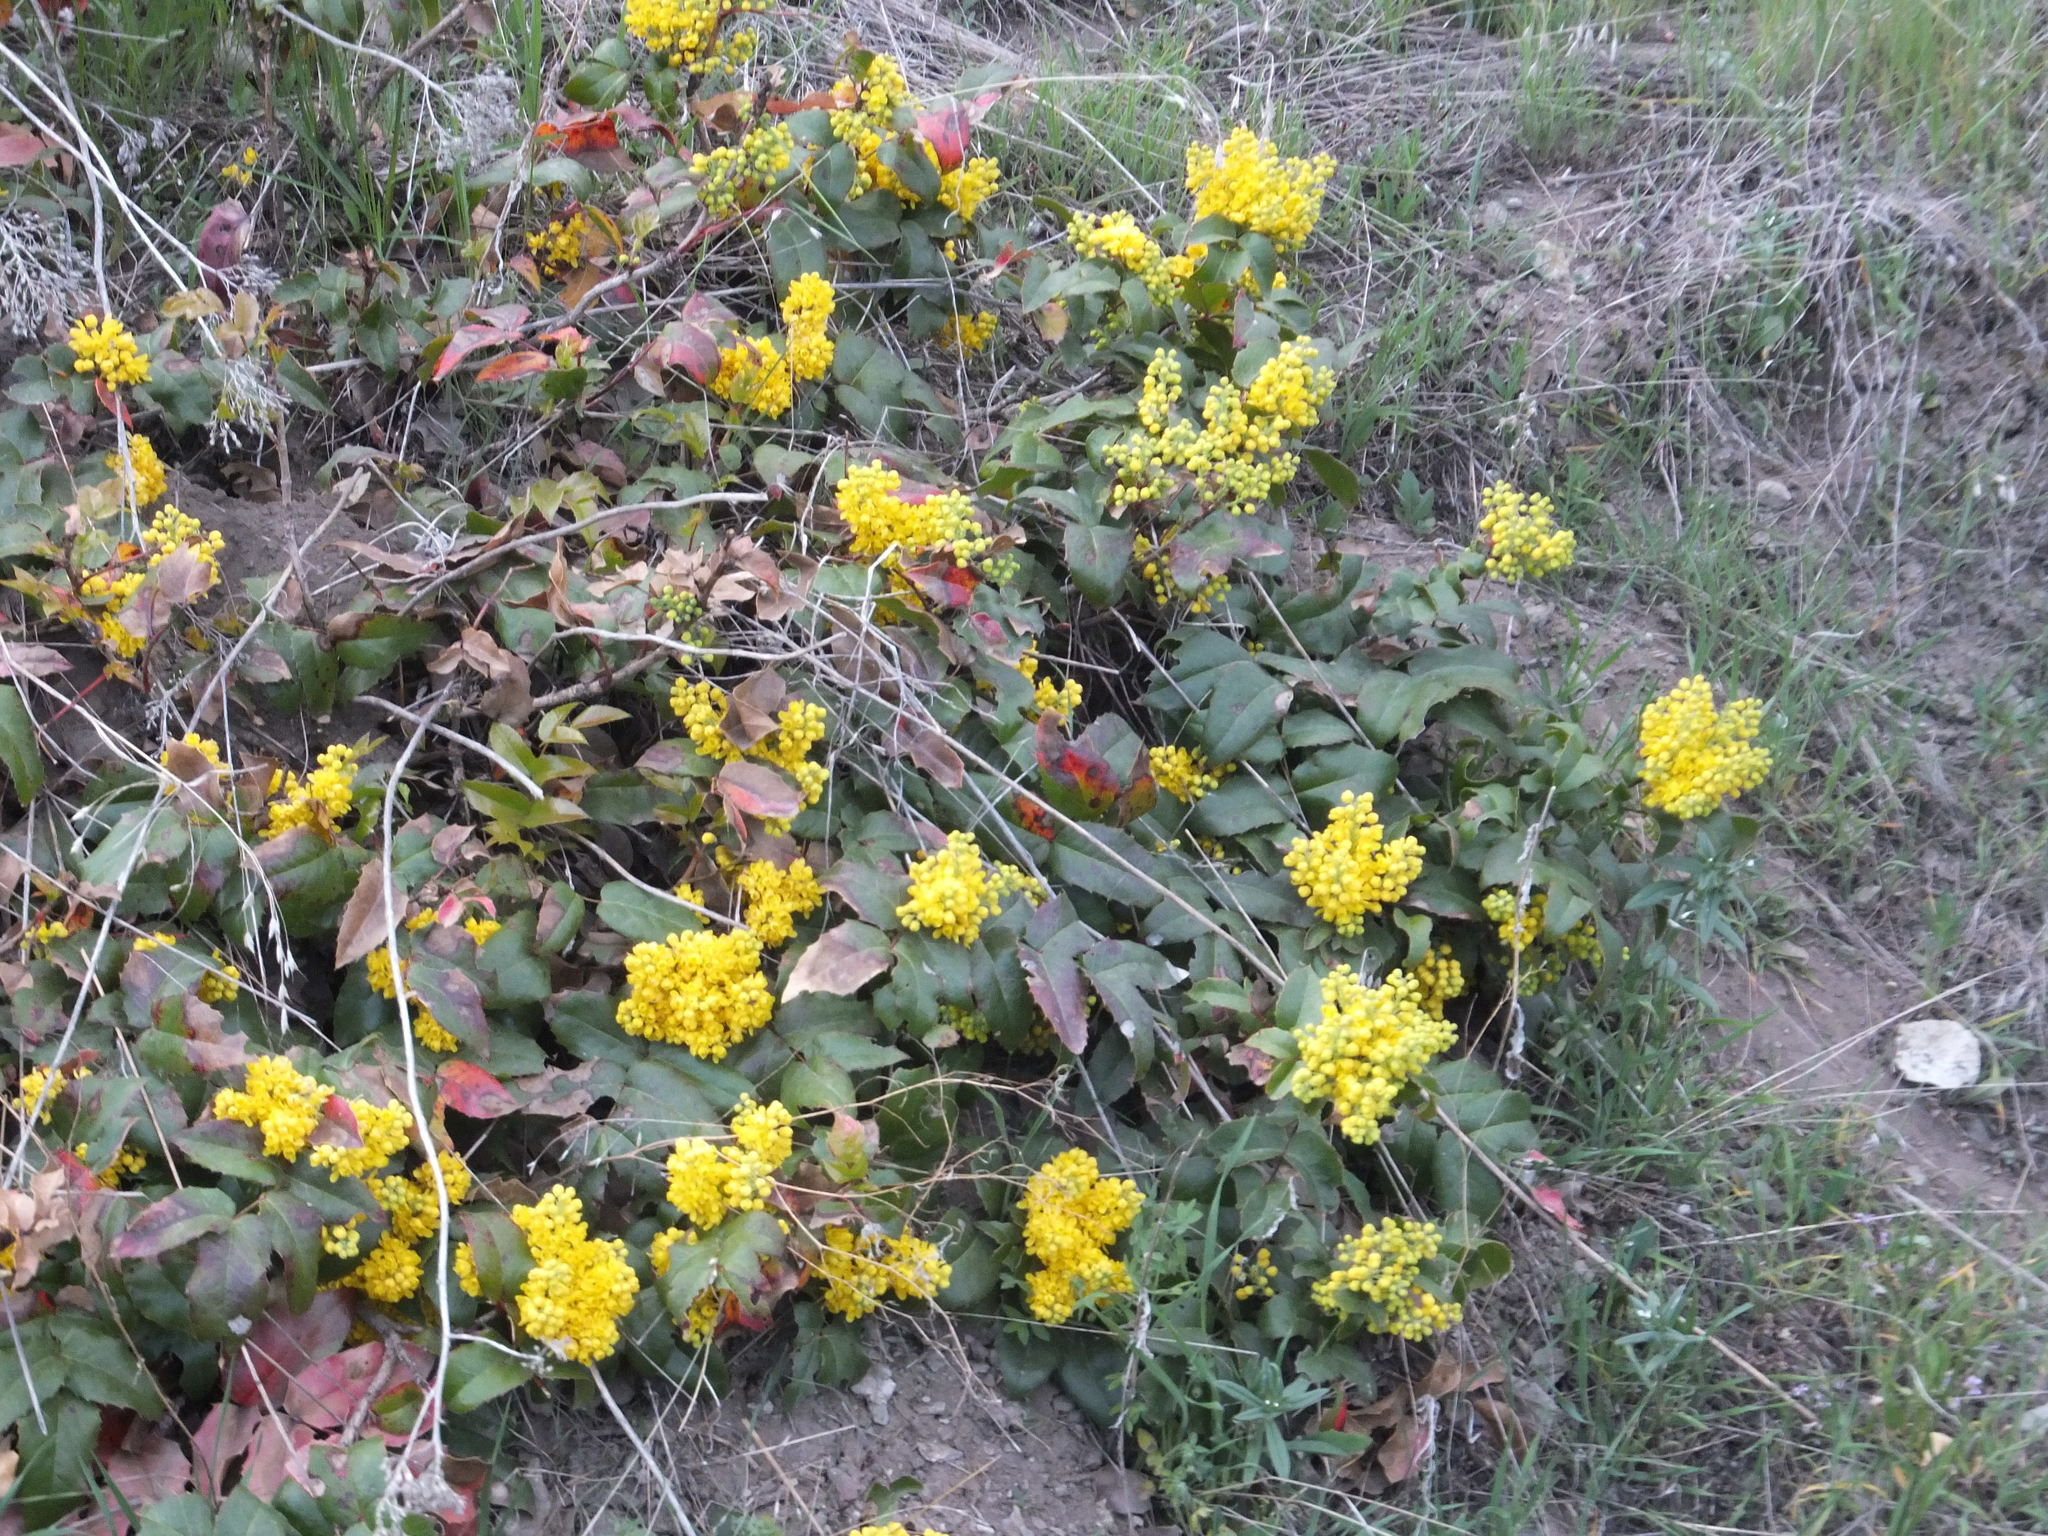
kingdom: Plantae
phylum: Tracheophyta
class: Magnoliopsida
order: Ranunculales
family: Berberidaceae
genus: Mahonia
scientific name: Mahonia aquifolium
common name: Oregon-grape
